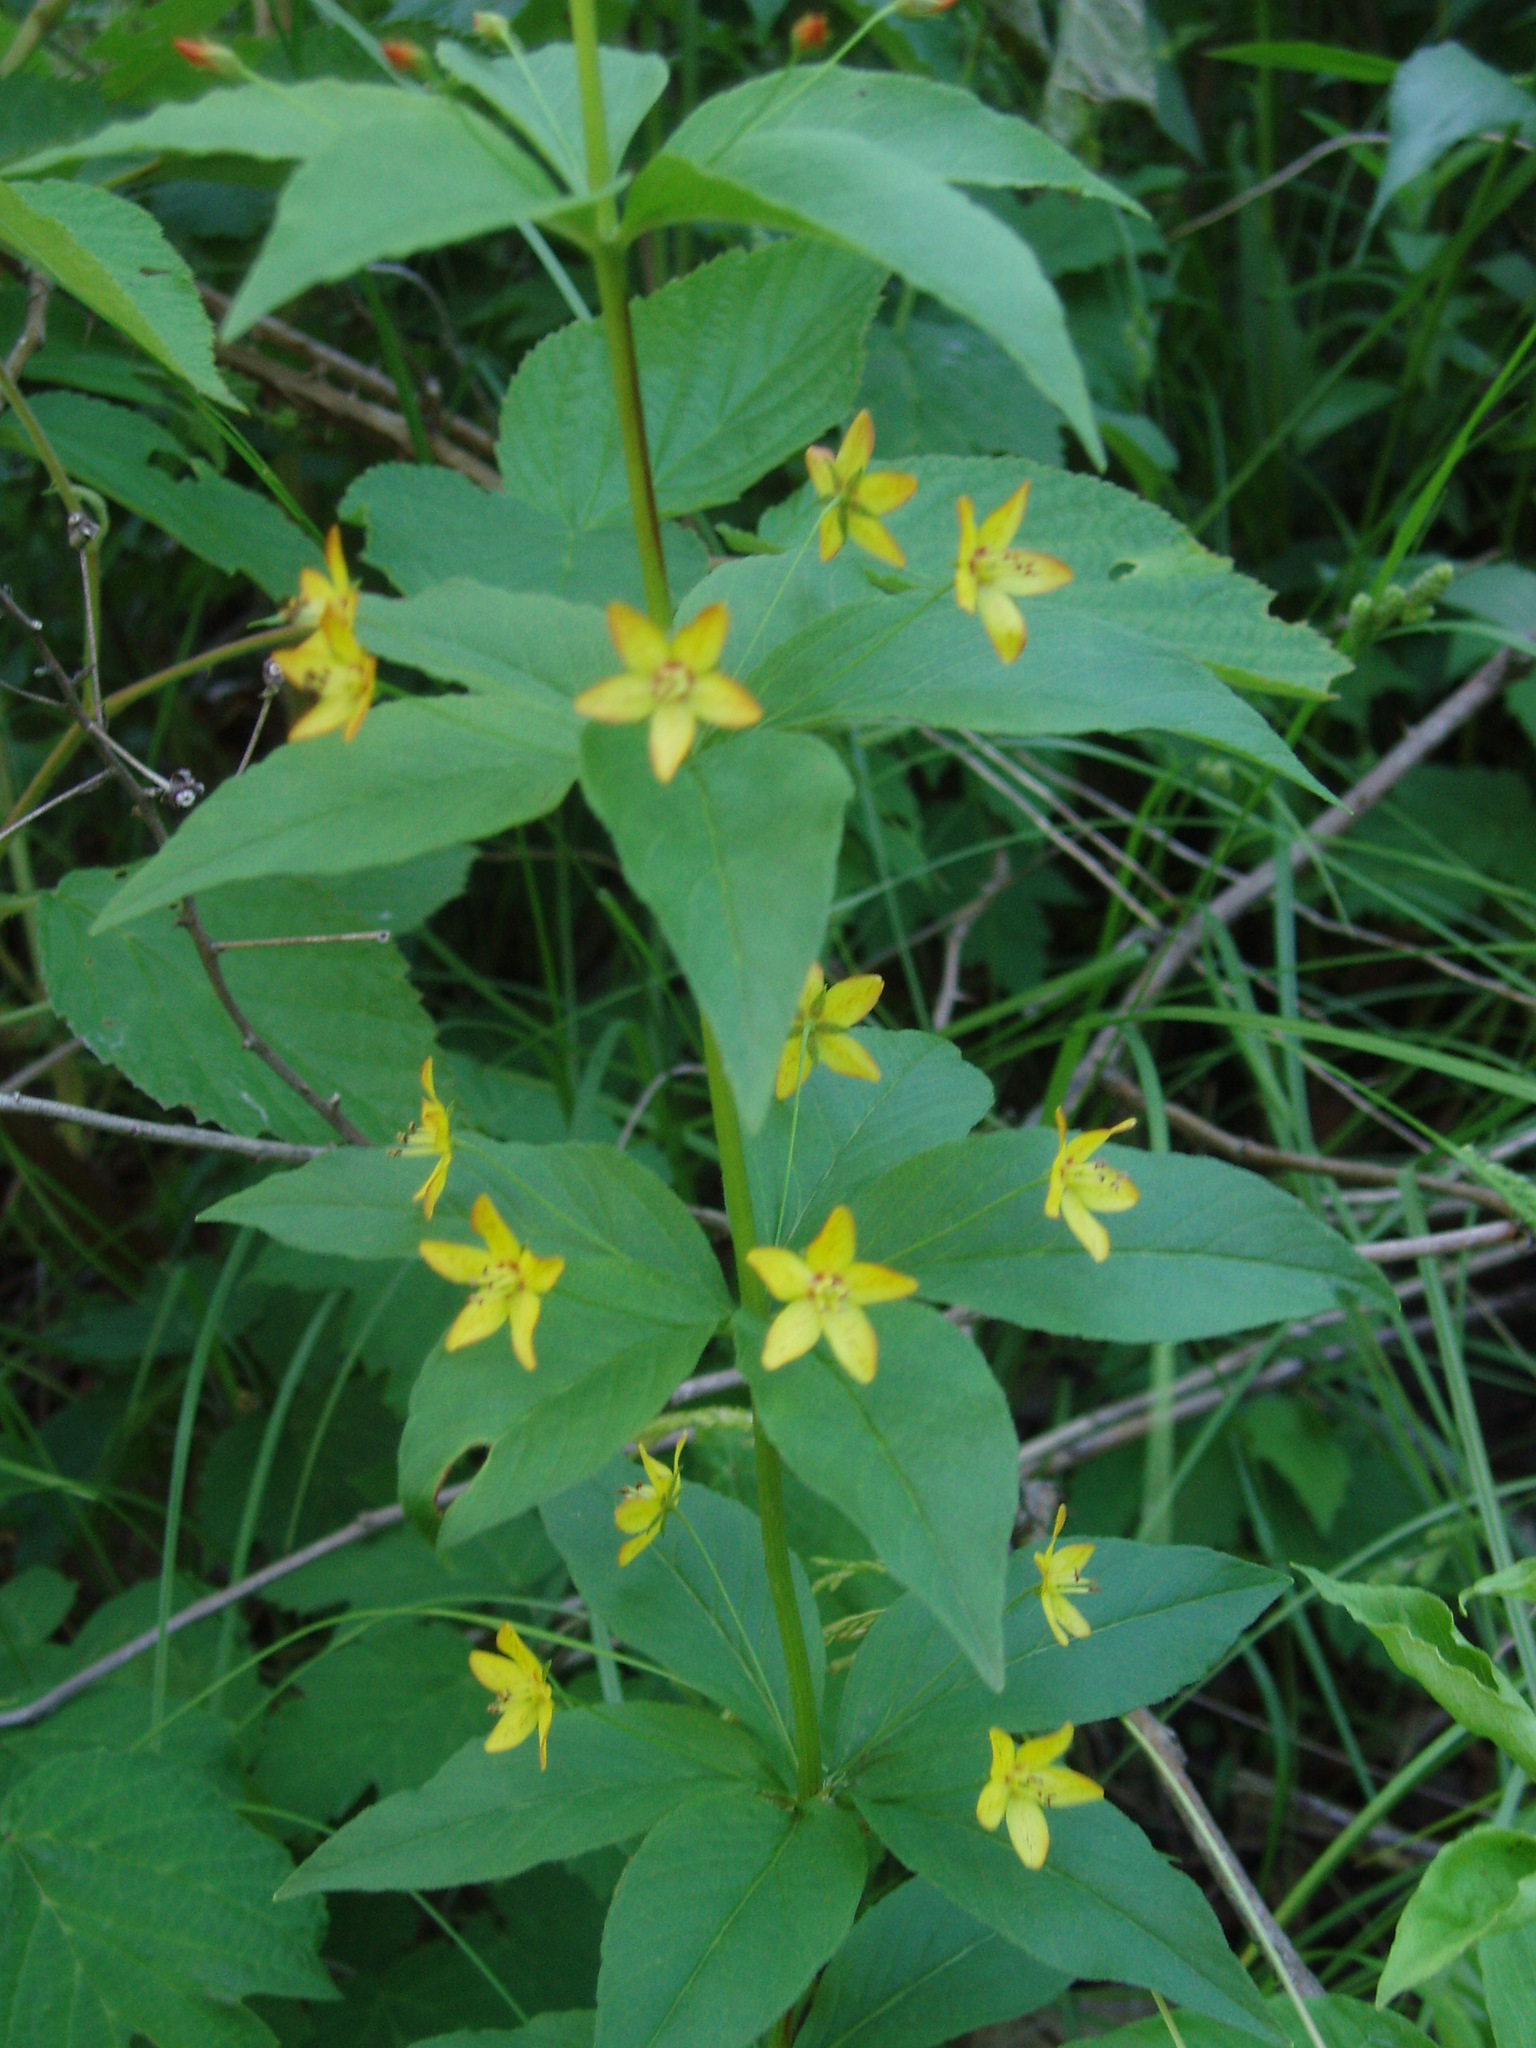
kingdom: Plantae
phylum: Tracheophyta
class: Magnoliopsida
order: Ericales
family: Primulaceae
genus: Lysimachia
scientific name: Lysimachia quadrifolia
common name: Whorled loosestrife
